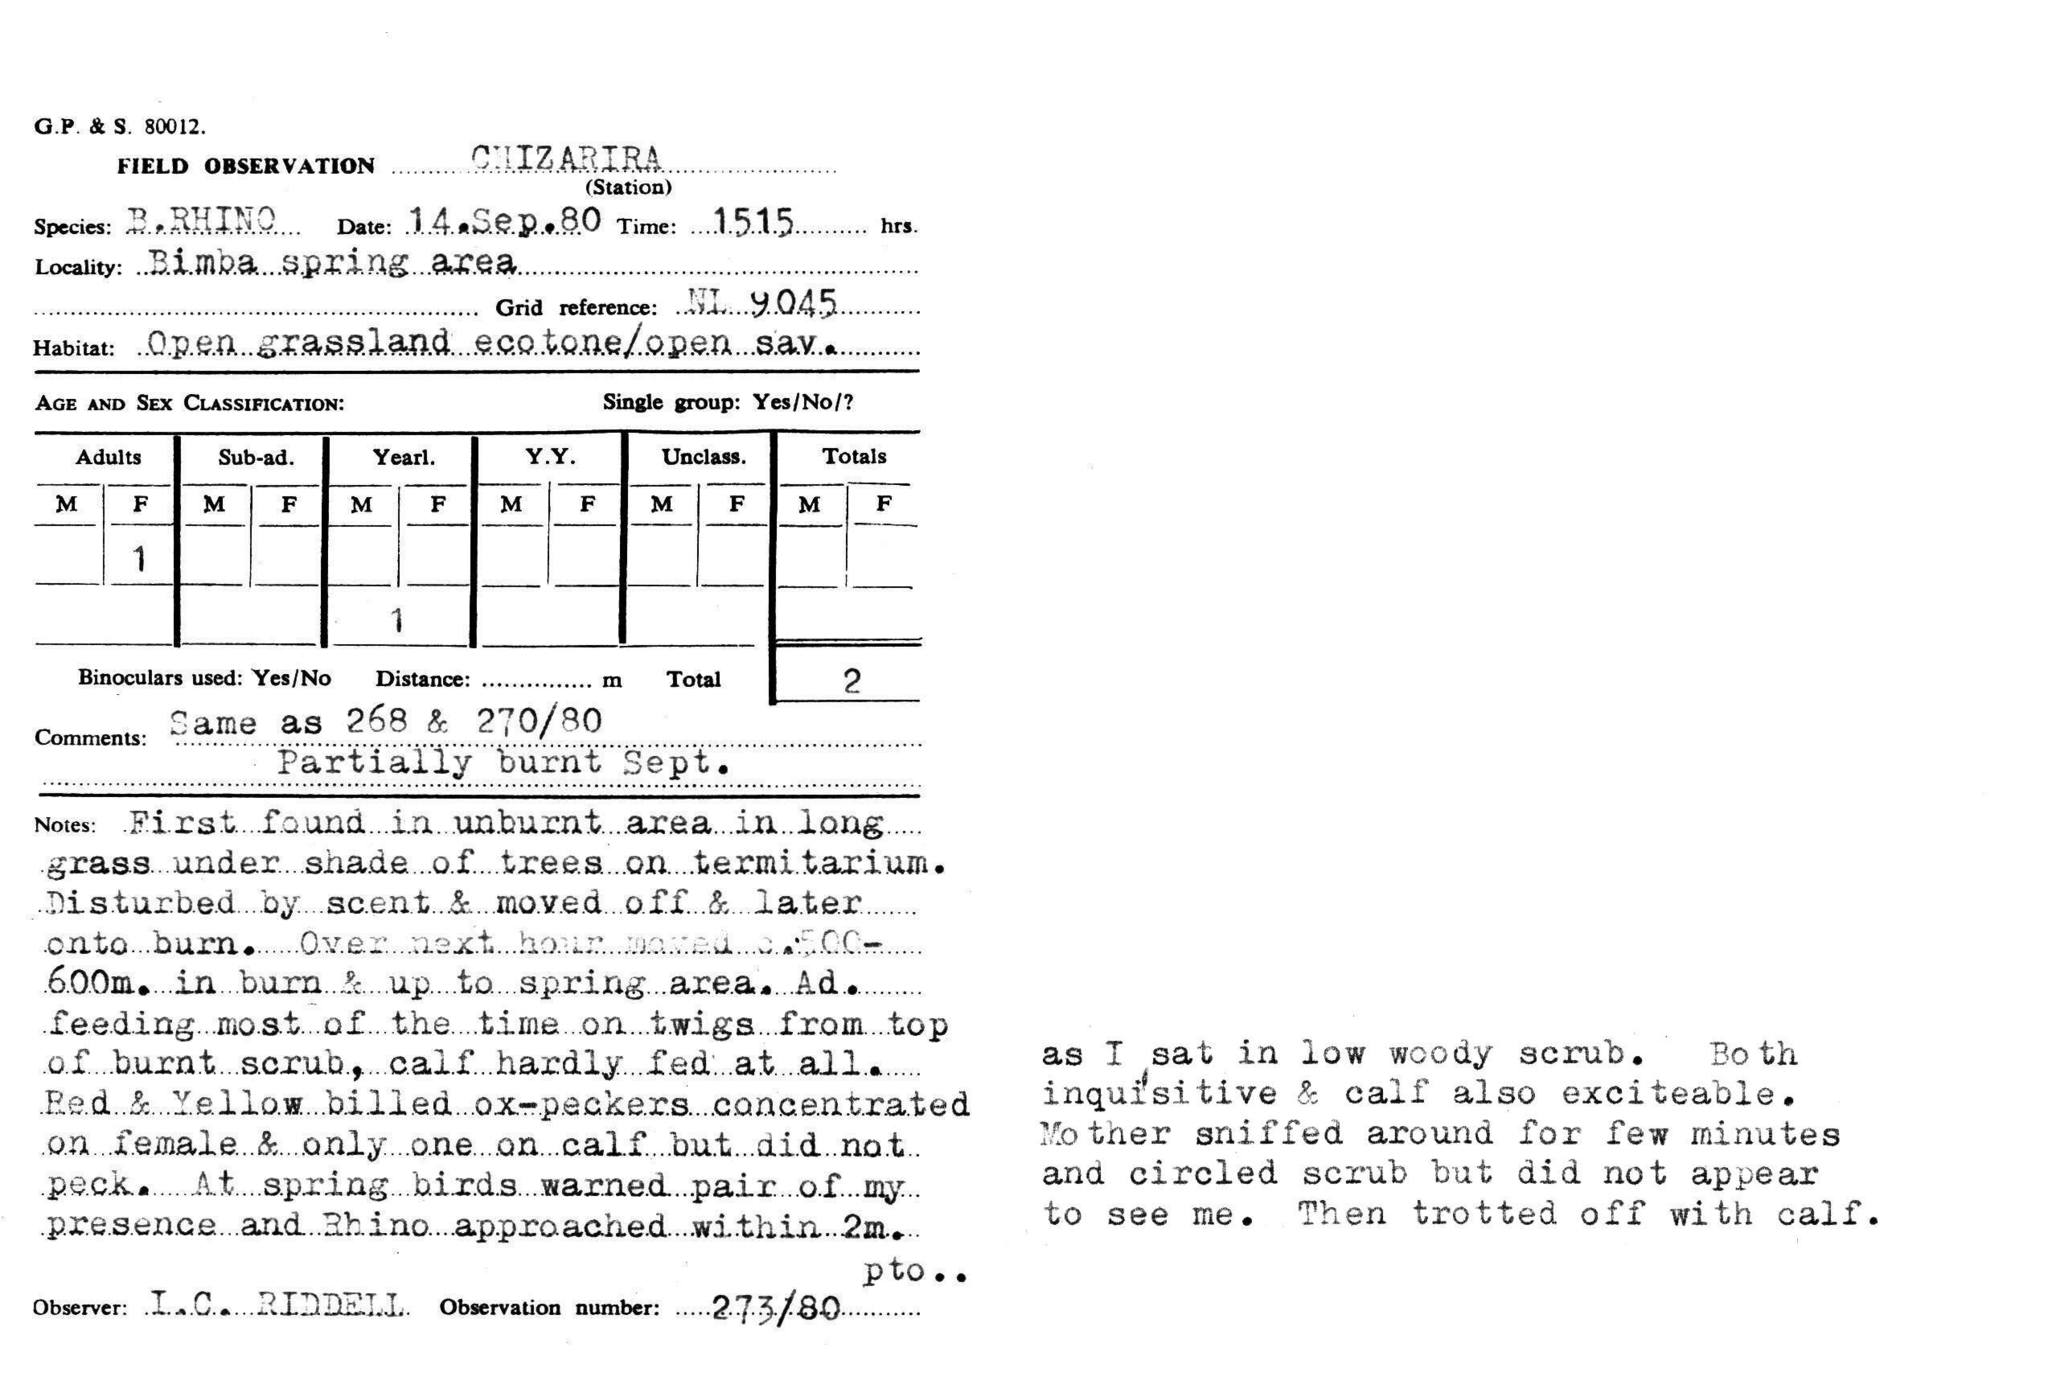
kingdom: Animalia
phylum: Chordata
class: Mammalia
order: Perissodactyla
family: Rhinocerotidae
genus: Diceros
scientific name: Diceros bicornis
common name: Black rhinoceros
